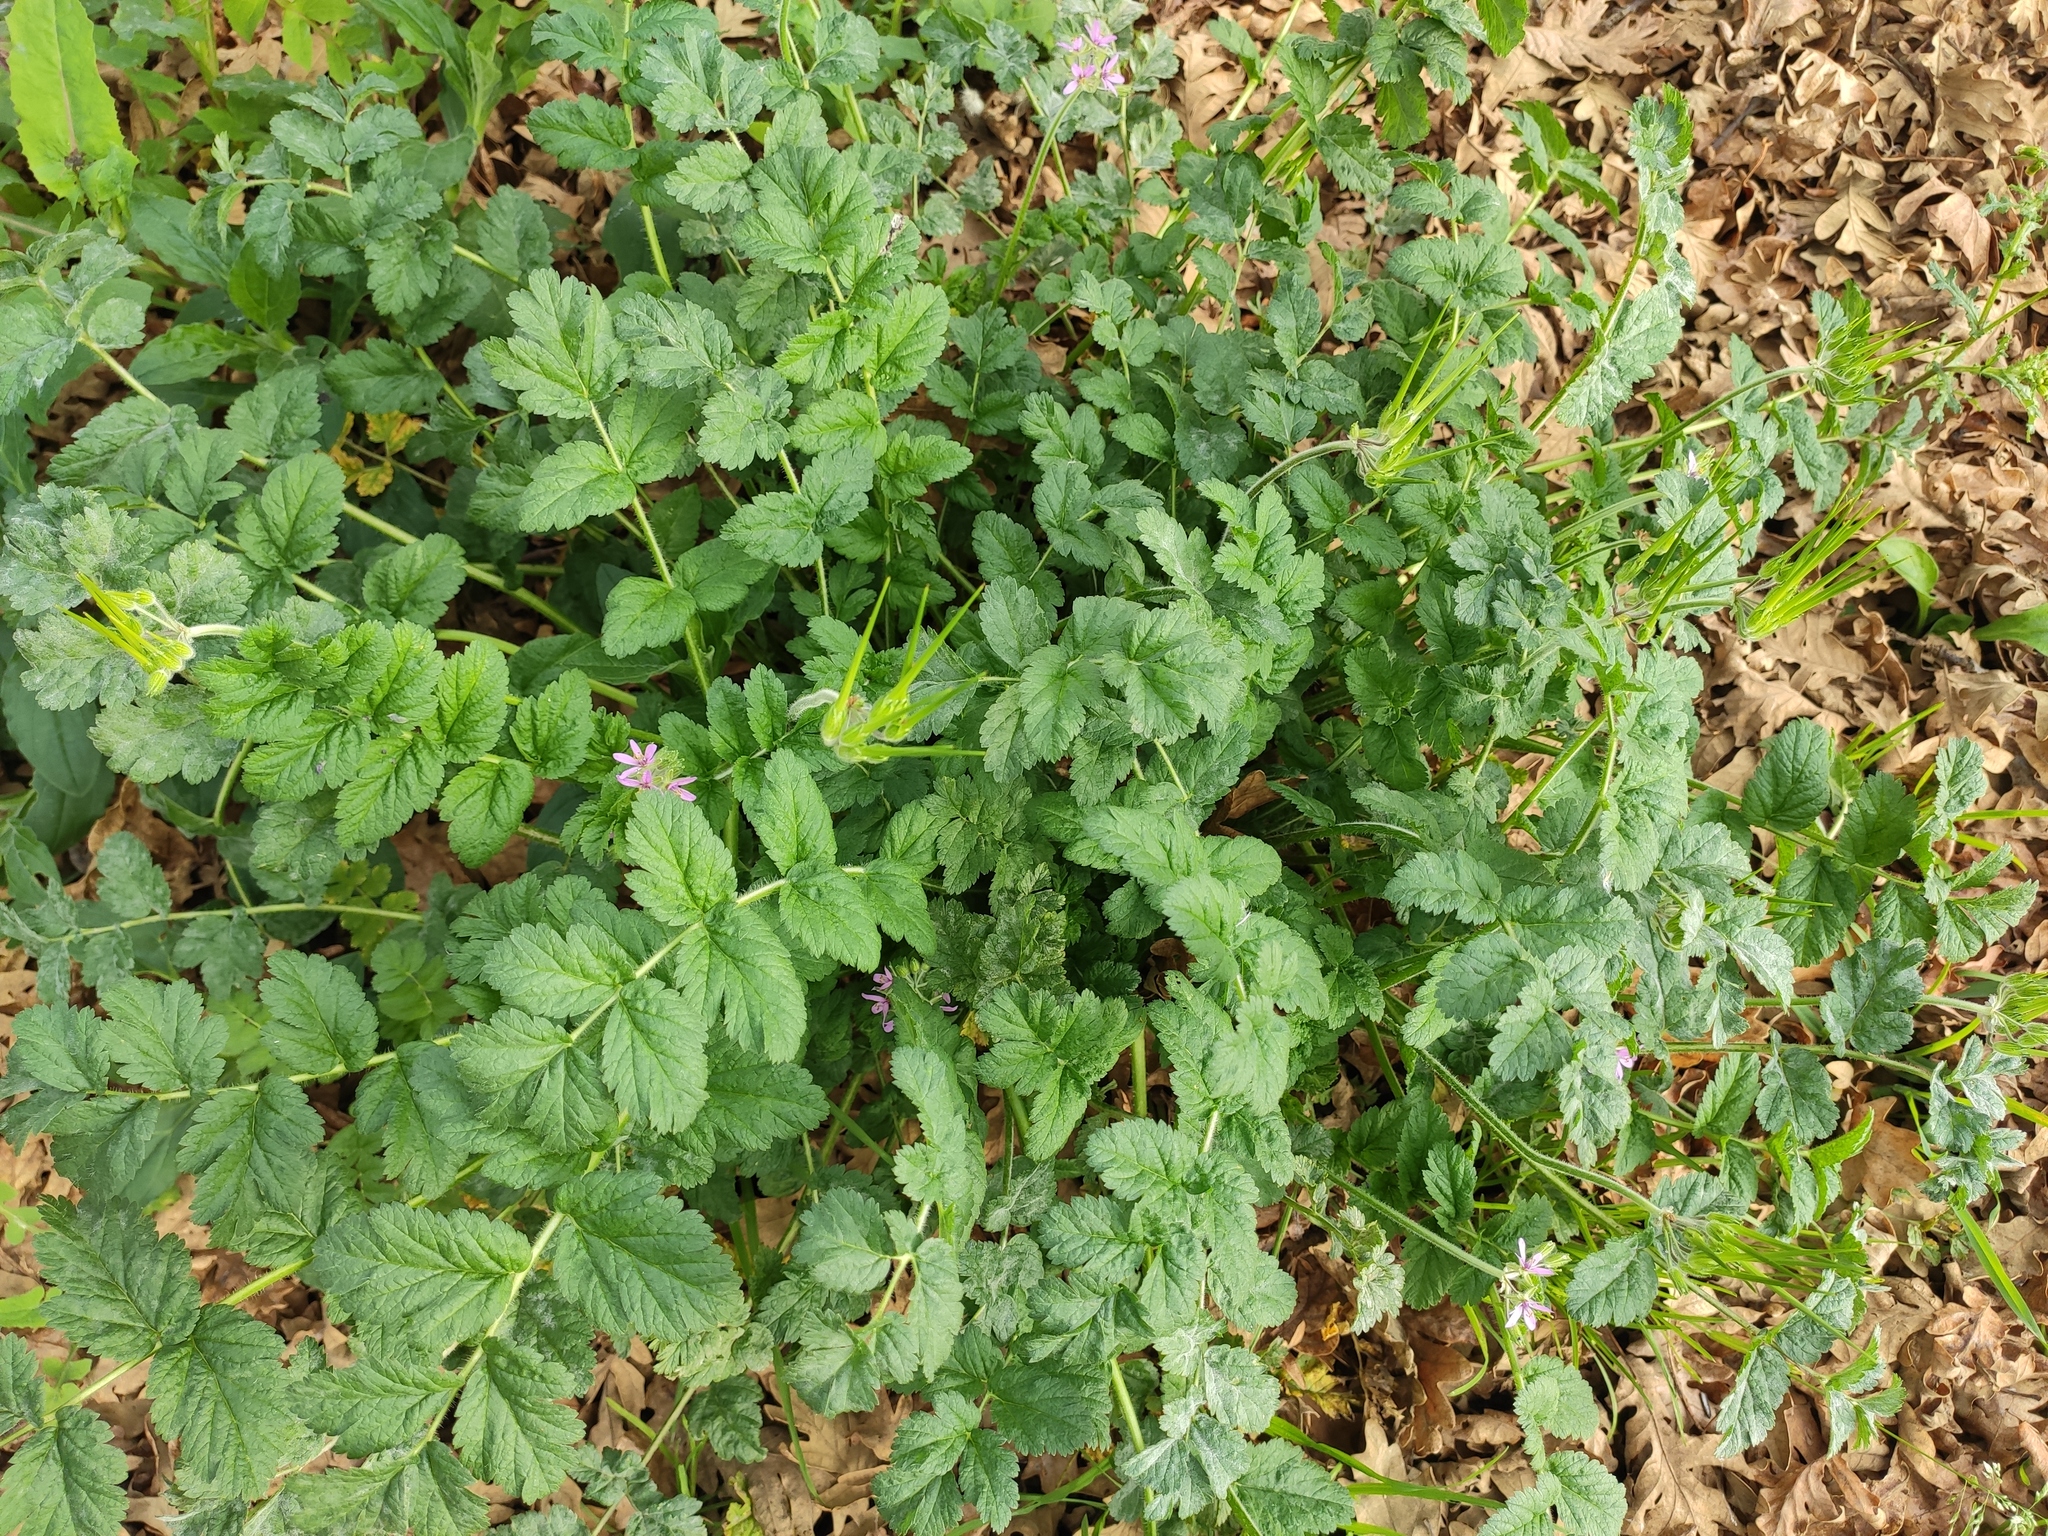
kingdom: Plantae
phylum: Tracheophyta
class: Magnoliopsida
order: Geraniales
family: Geraniaceae
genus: Erodium
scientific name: Erodium moschatum
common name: Musk stork's-bill
